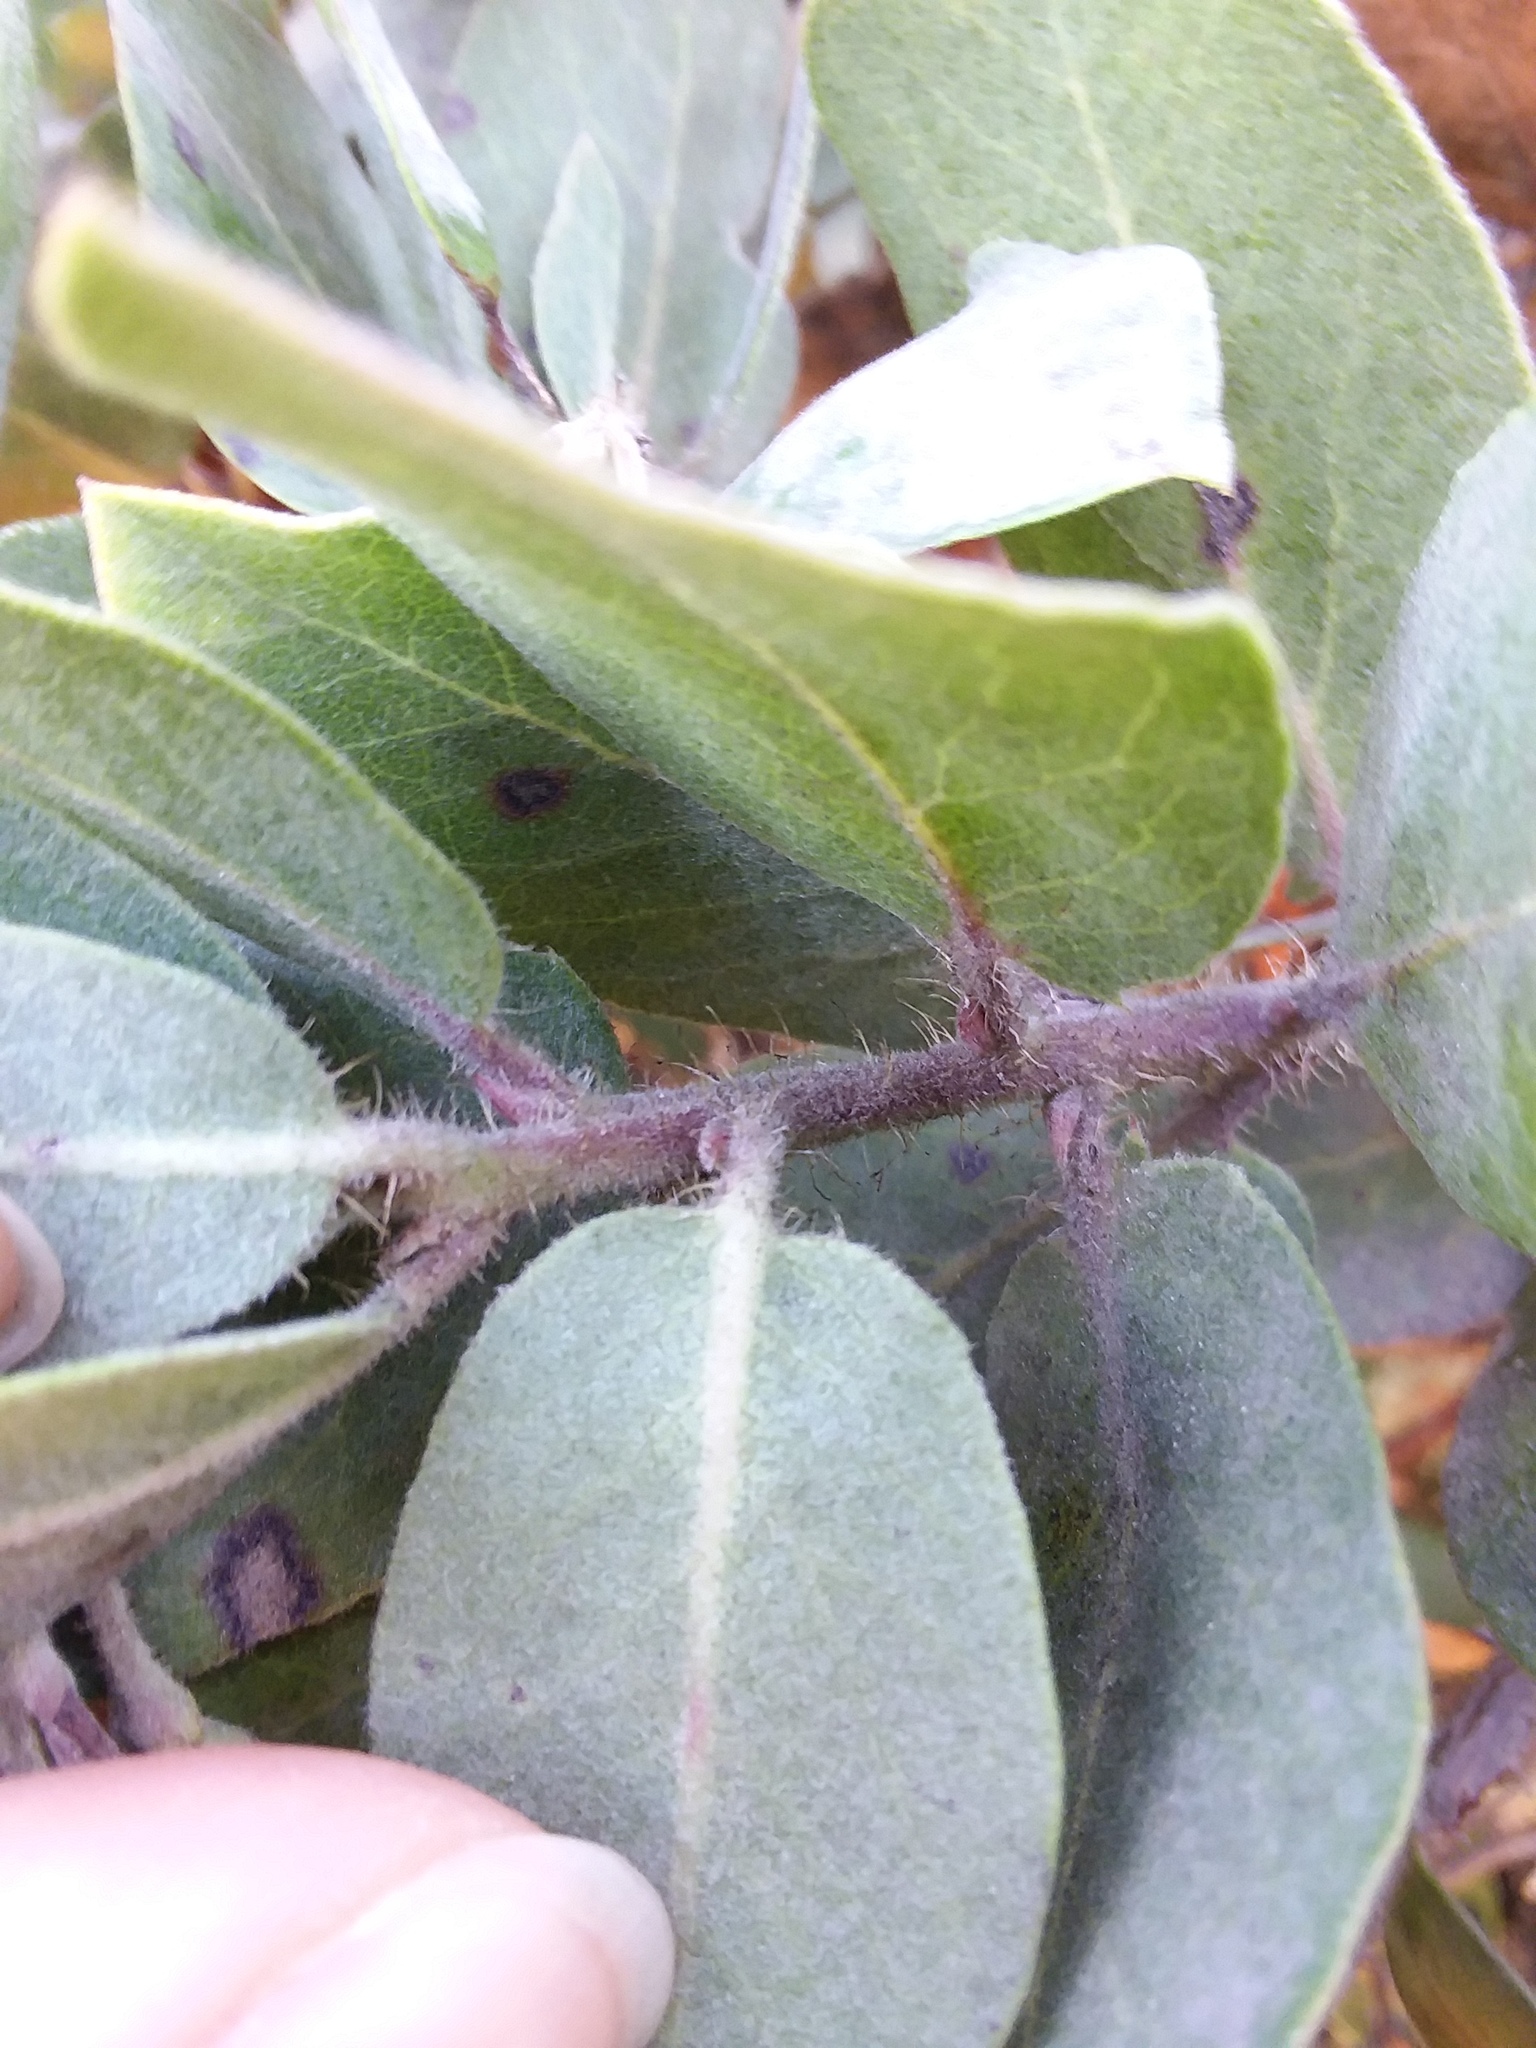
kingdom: Plantae
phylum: Tracheophyta
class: Magnoliopsida
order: Ericales
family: Ericaceae
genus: Arctostaphylos
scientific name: Arctostaphylos crustacea
